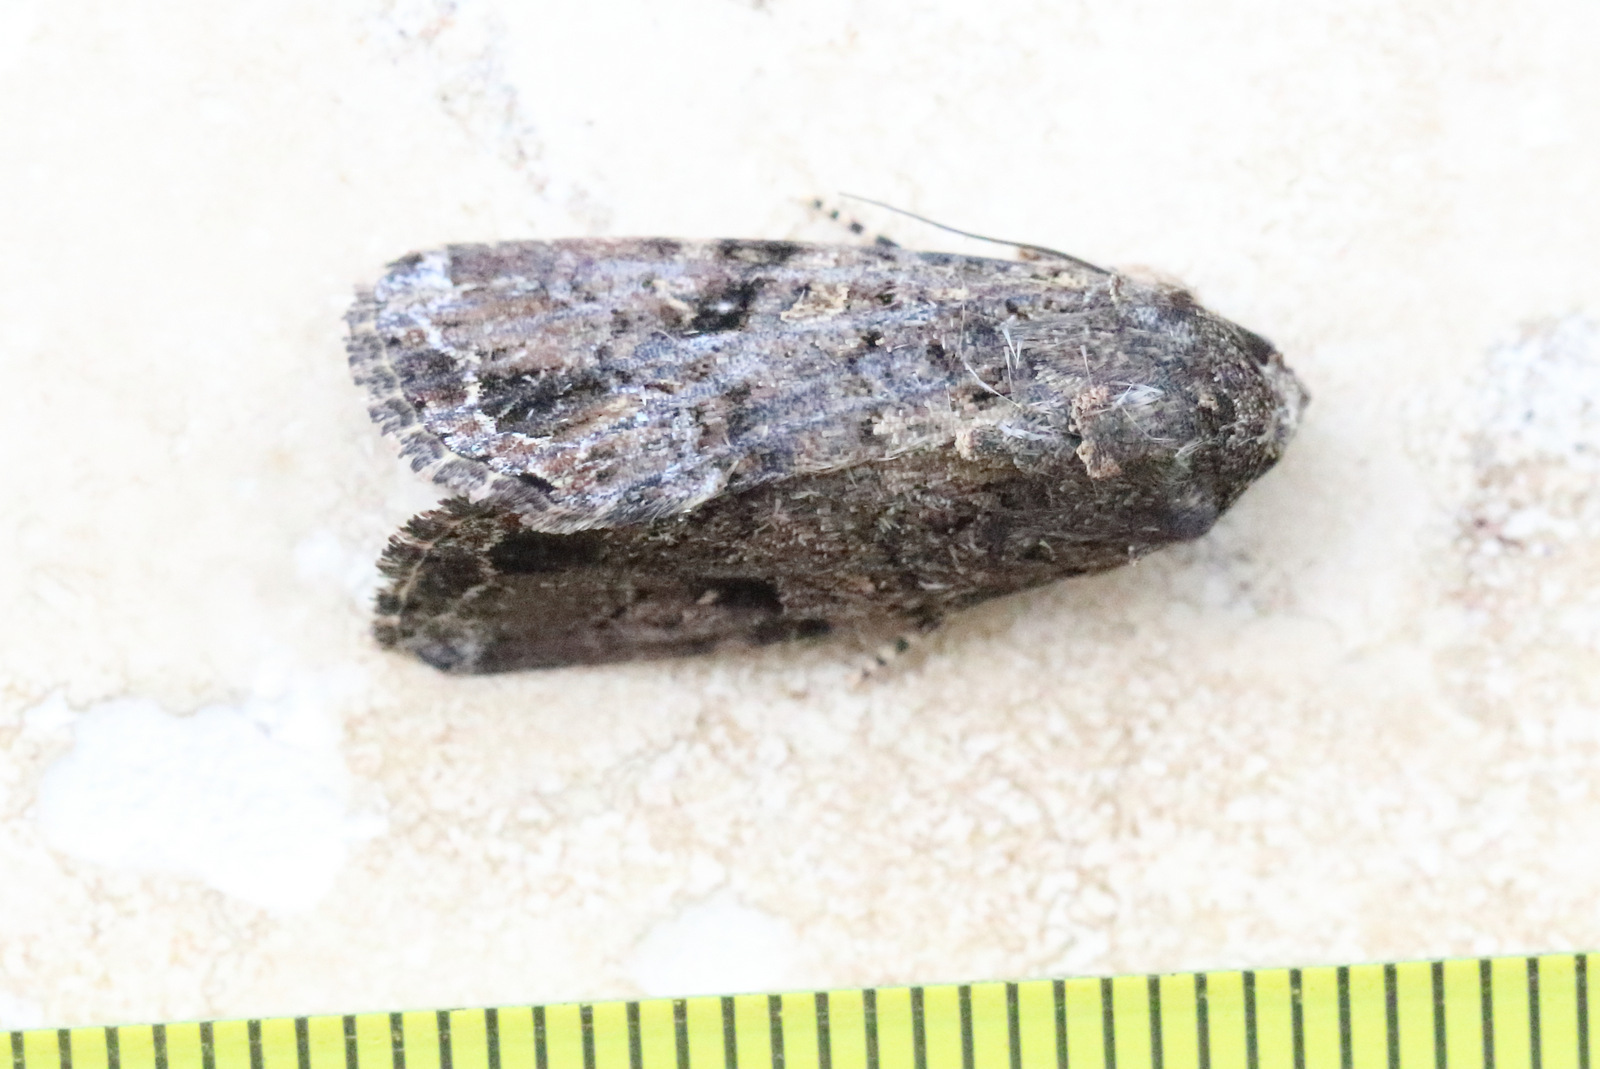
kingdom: Animalia
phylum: Arthropoda
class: Insecta
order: Lepidoptera
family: Noctuidae
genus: Spodoptera
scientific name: Spodoptera mauritia
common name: Lawn armyworm
